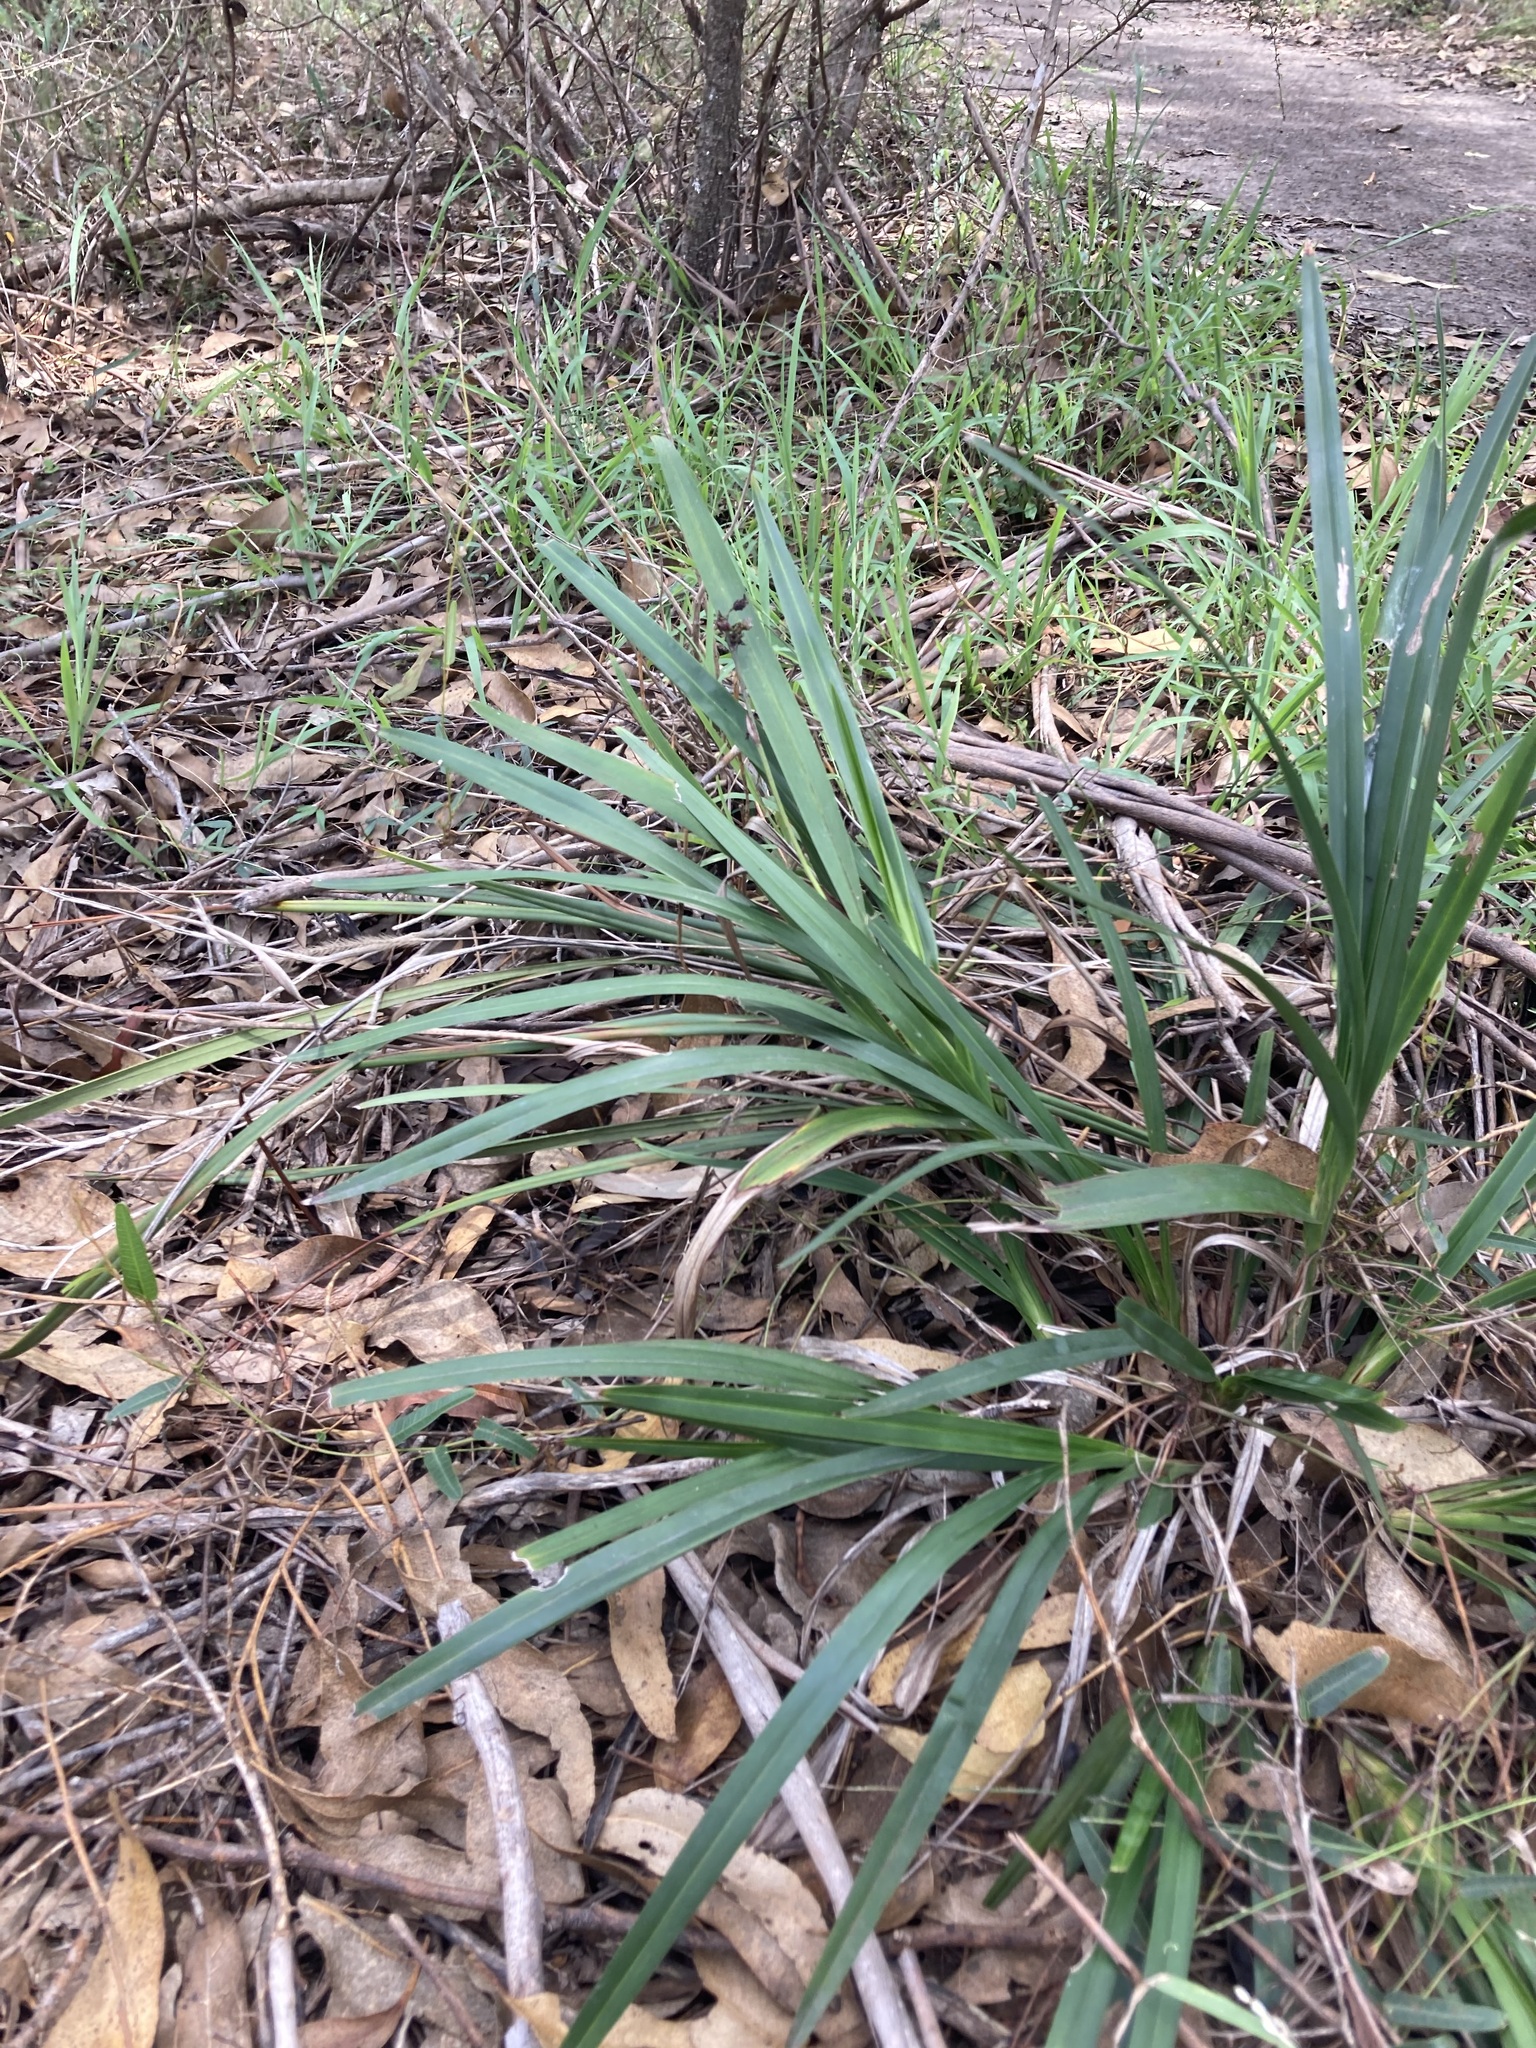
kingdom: Plantae
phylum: Tracheophyta
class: Liliopsida
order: Asparagales
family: Asphodelaceae
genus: Dianella
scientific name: Dianella caerulea
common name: Blue flax-lily
